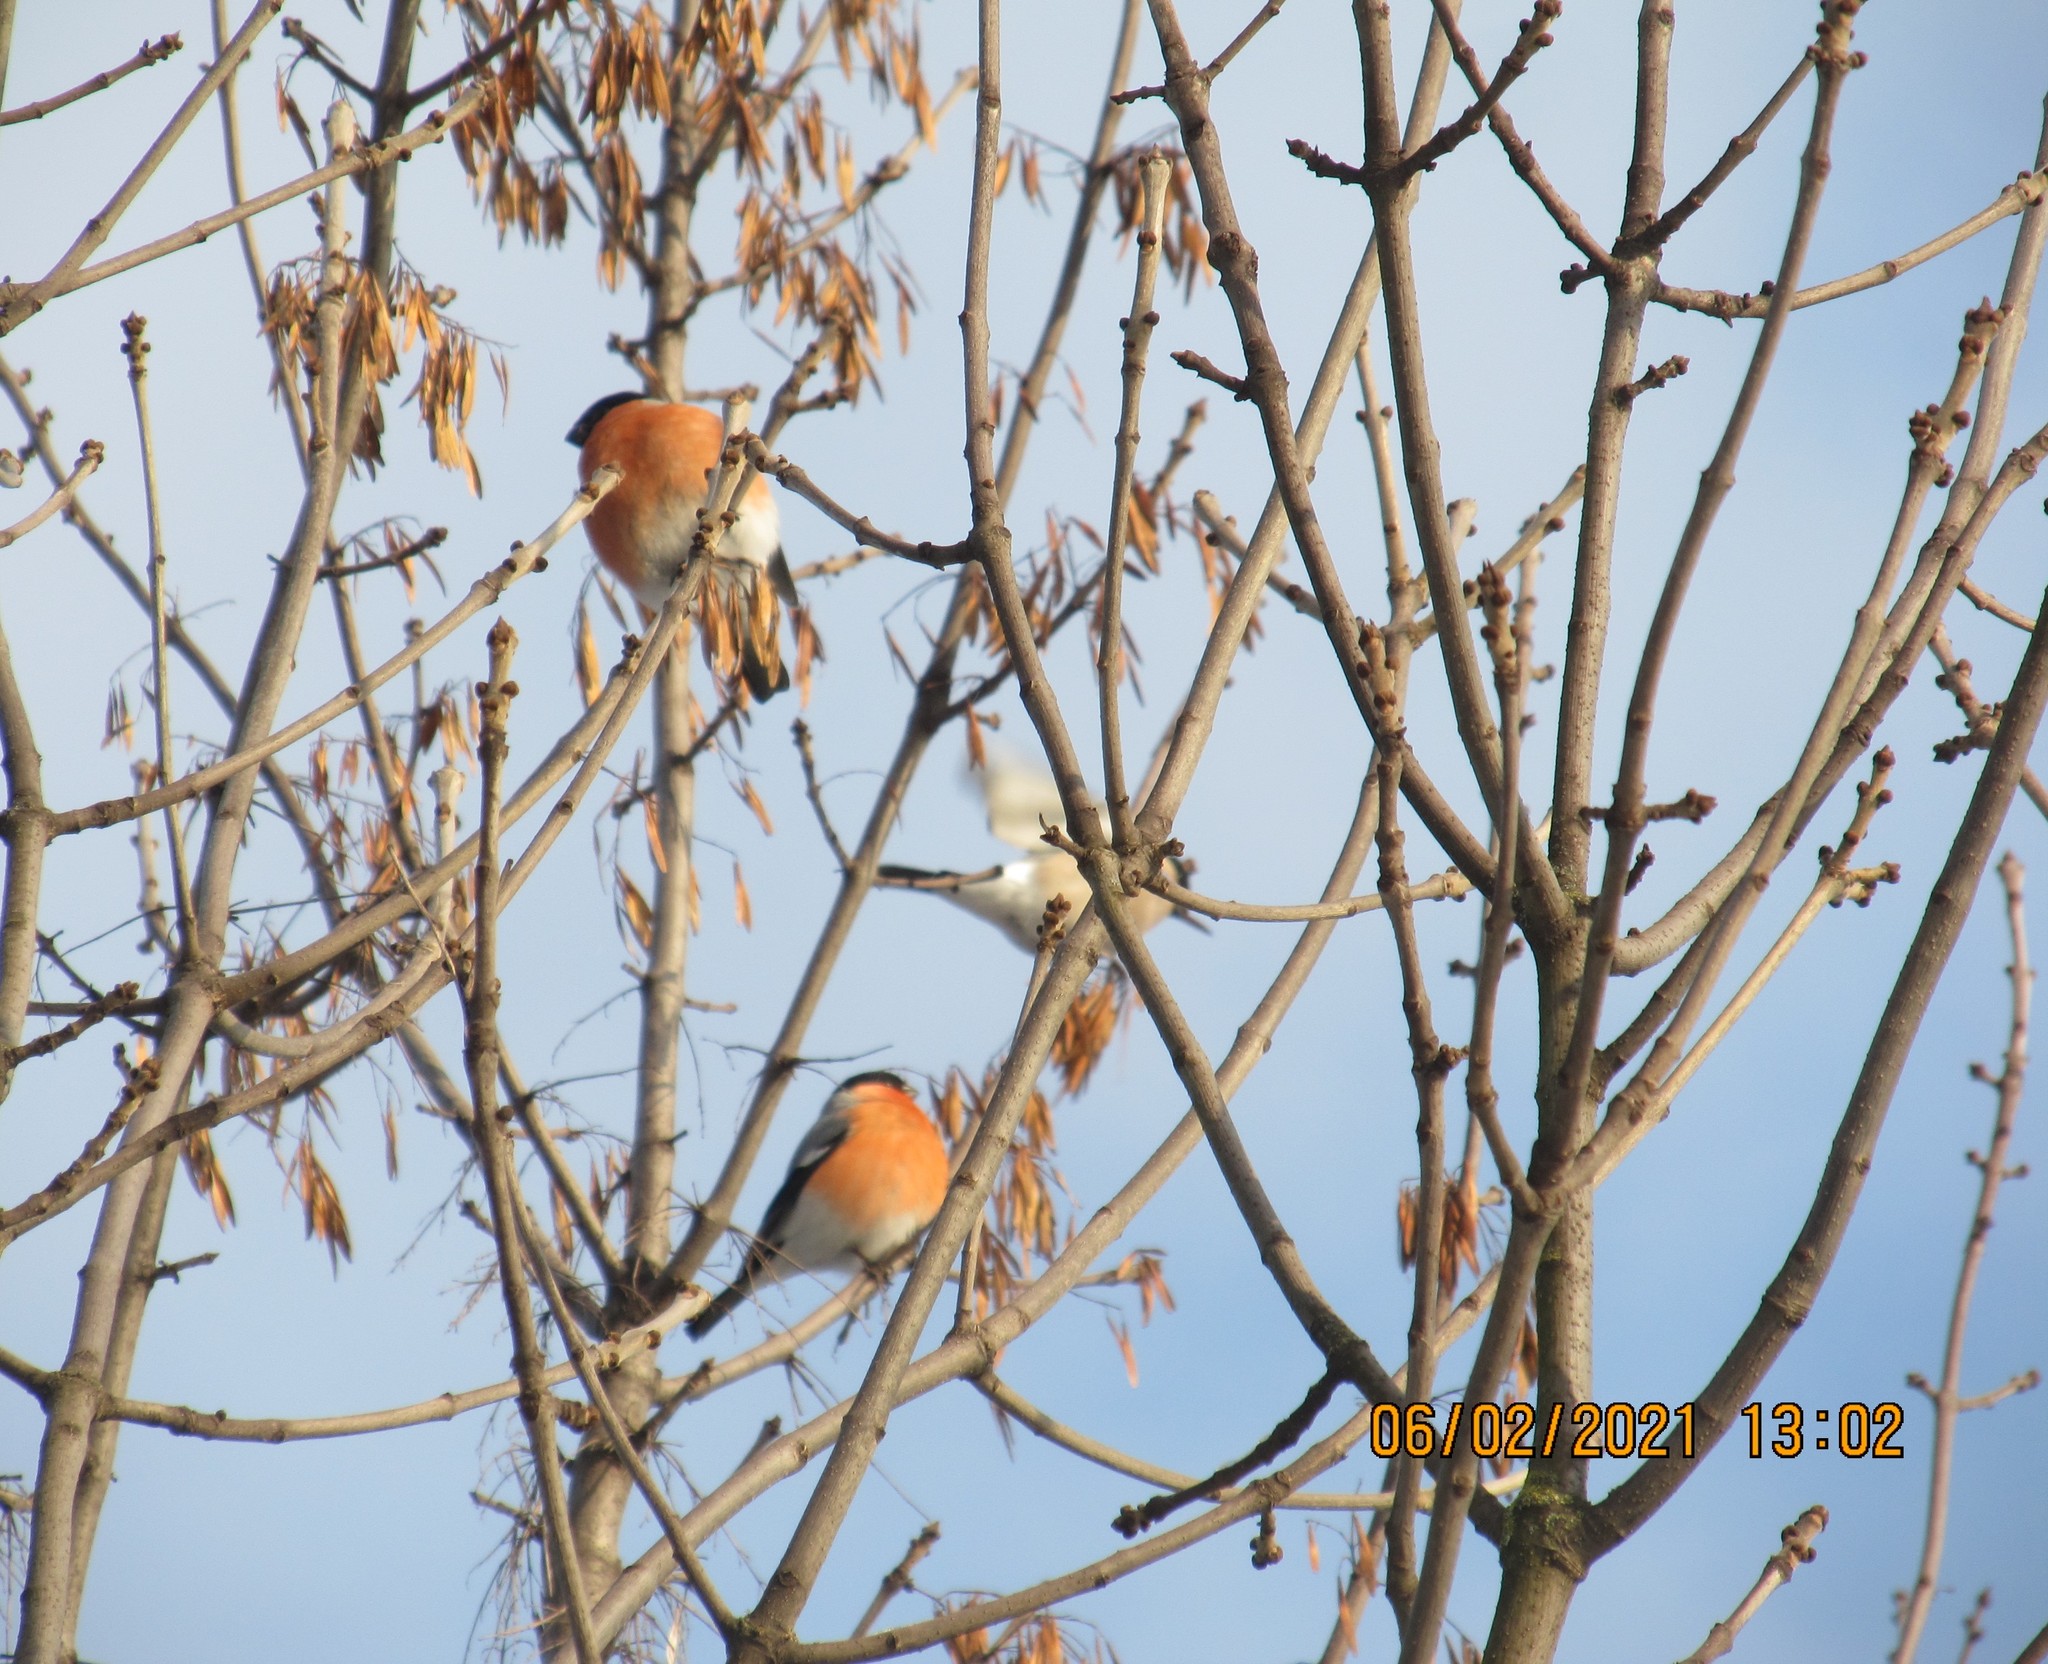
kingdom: Animalia
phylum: Chordata
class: Aves
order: Passeriformes
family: Fringillidae
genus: Pyrrhula
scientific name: Pyrrhula pyrrhula
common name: Eurasian bullfinch
